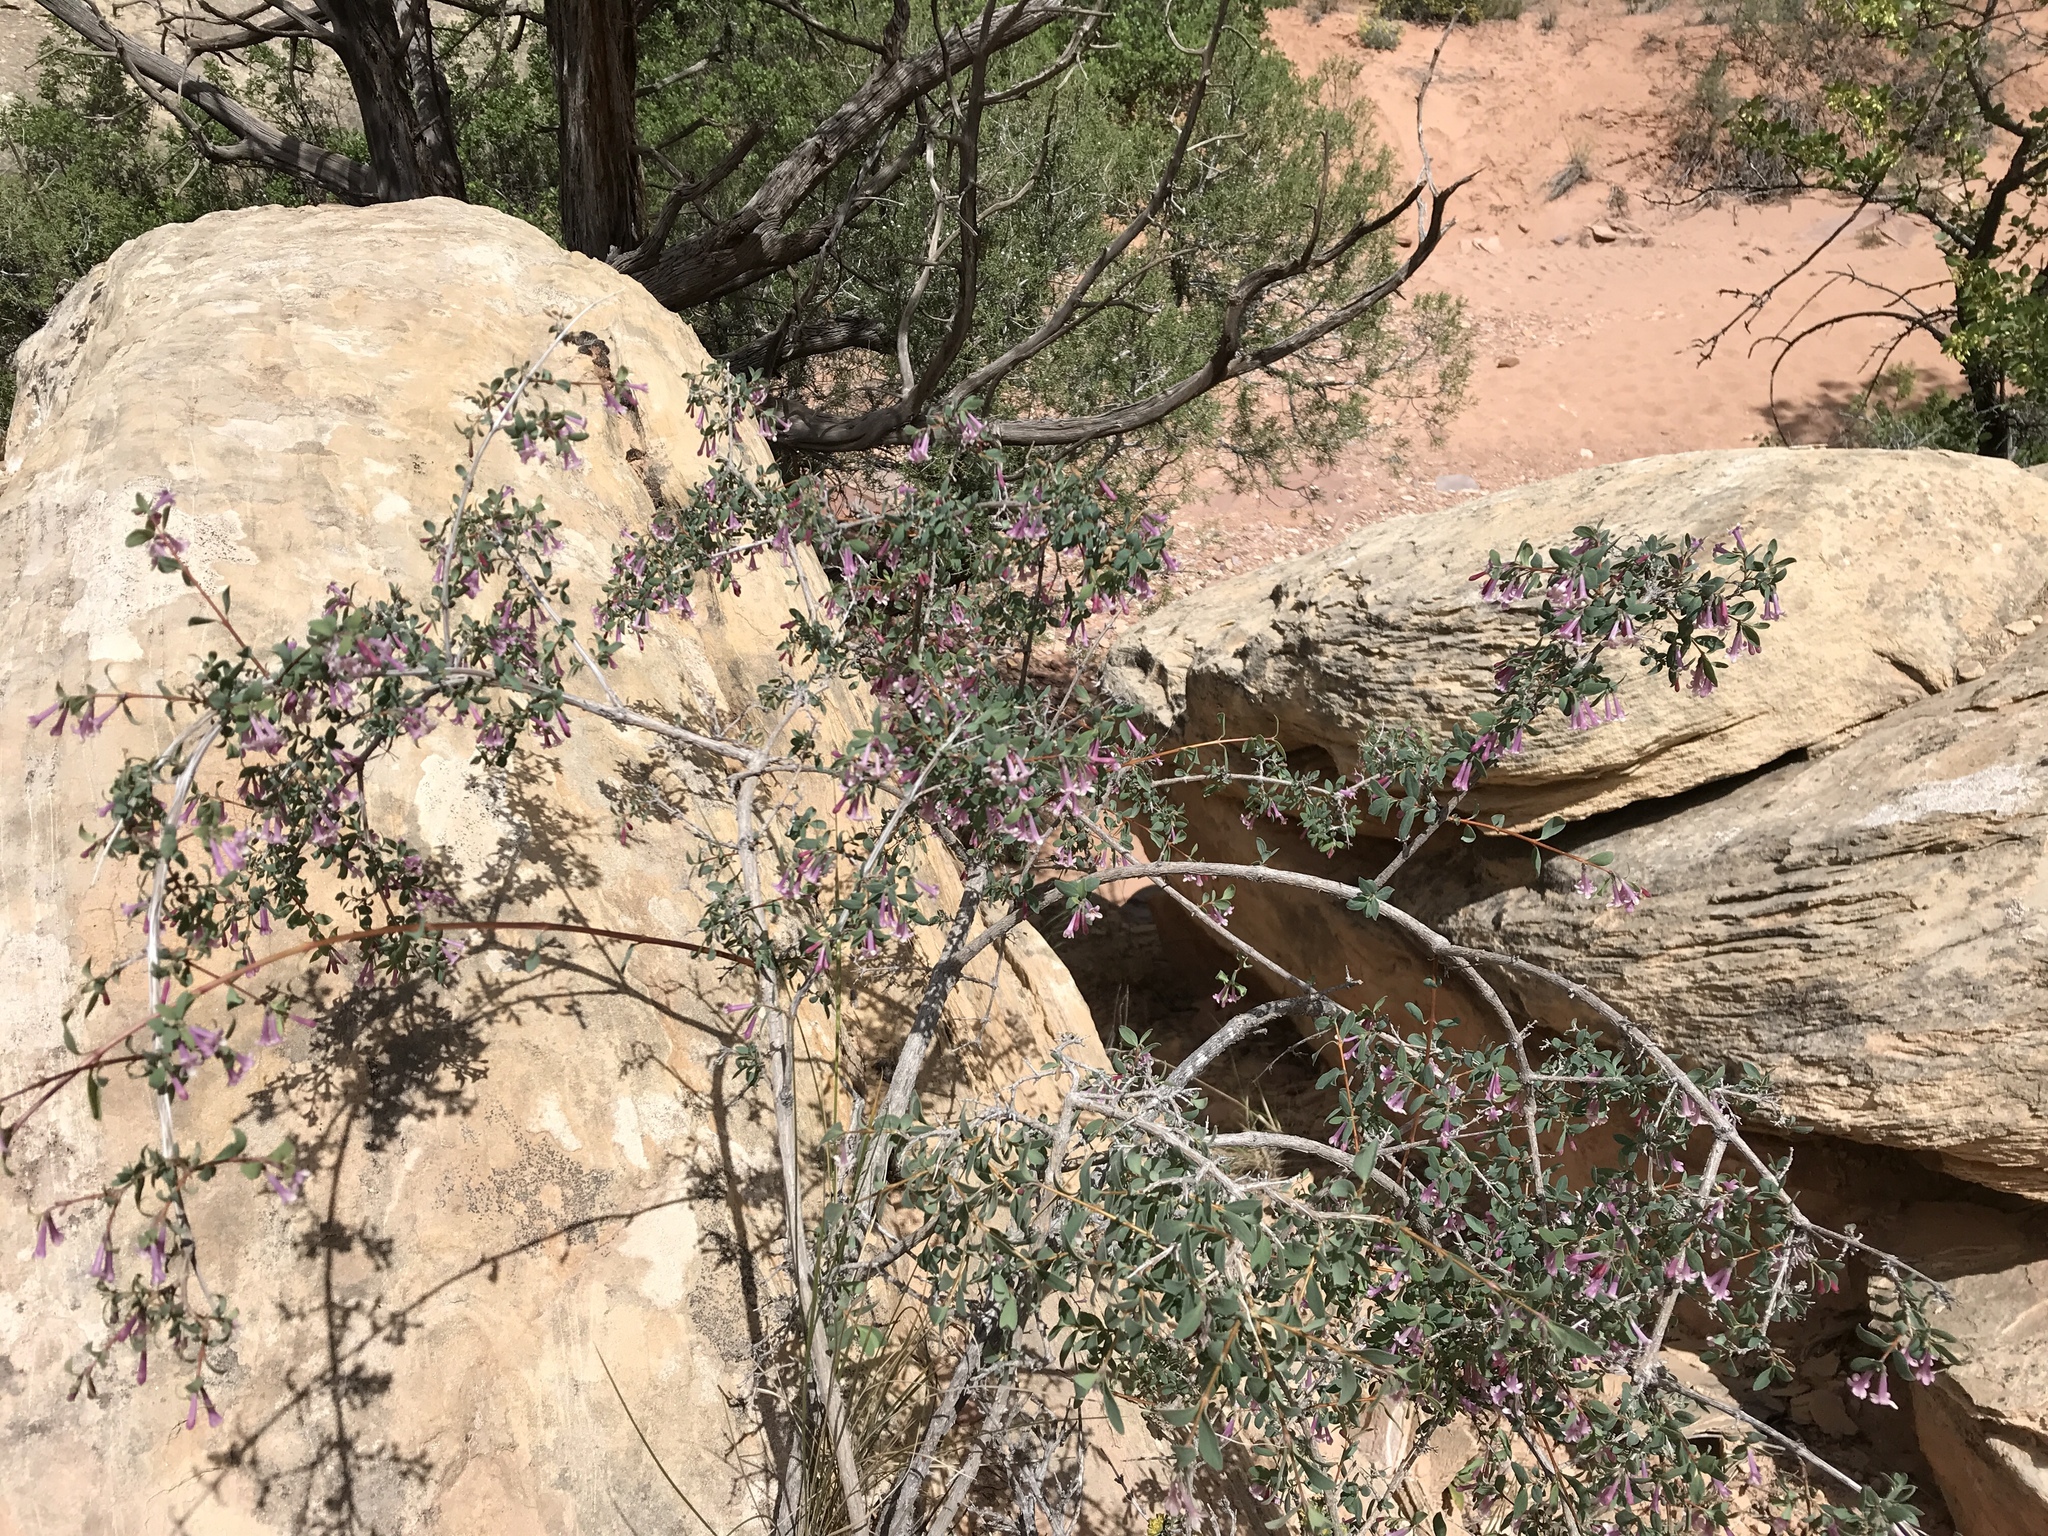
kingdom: Plantae
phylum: Tracheophyta
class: Magnoliopsida
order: Dipsacales
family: Caprifoliaceae
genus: Symphoricarpos
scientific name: Symphoricarpos longiflorus
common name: Fragrant snowberry
